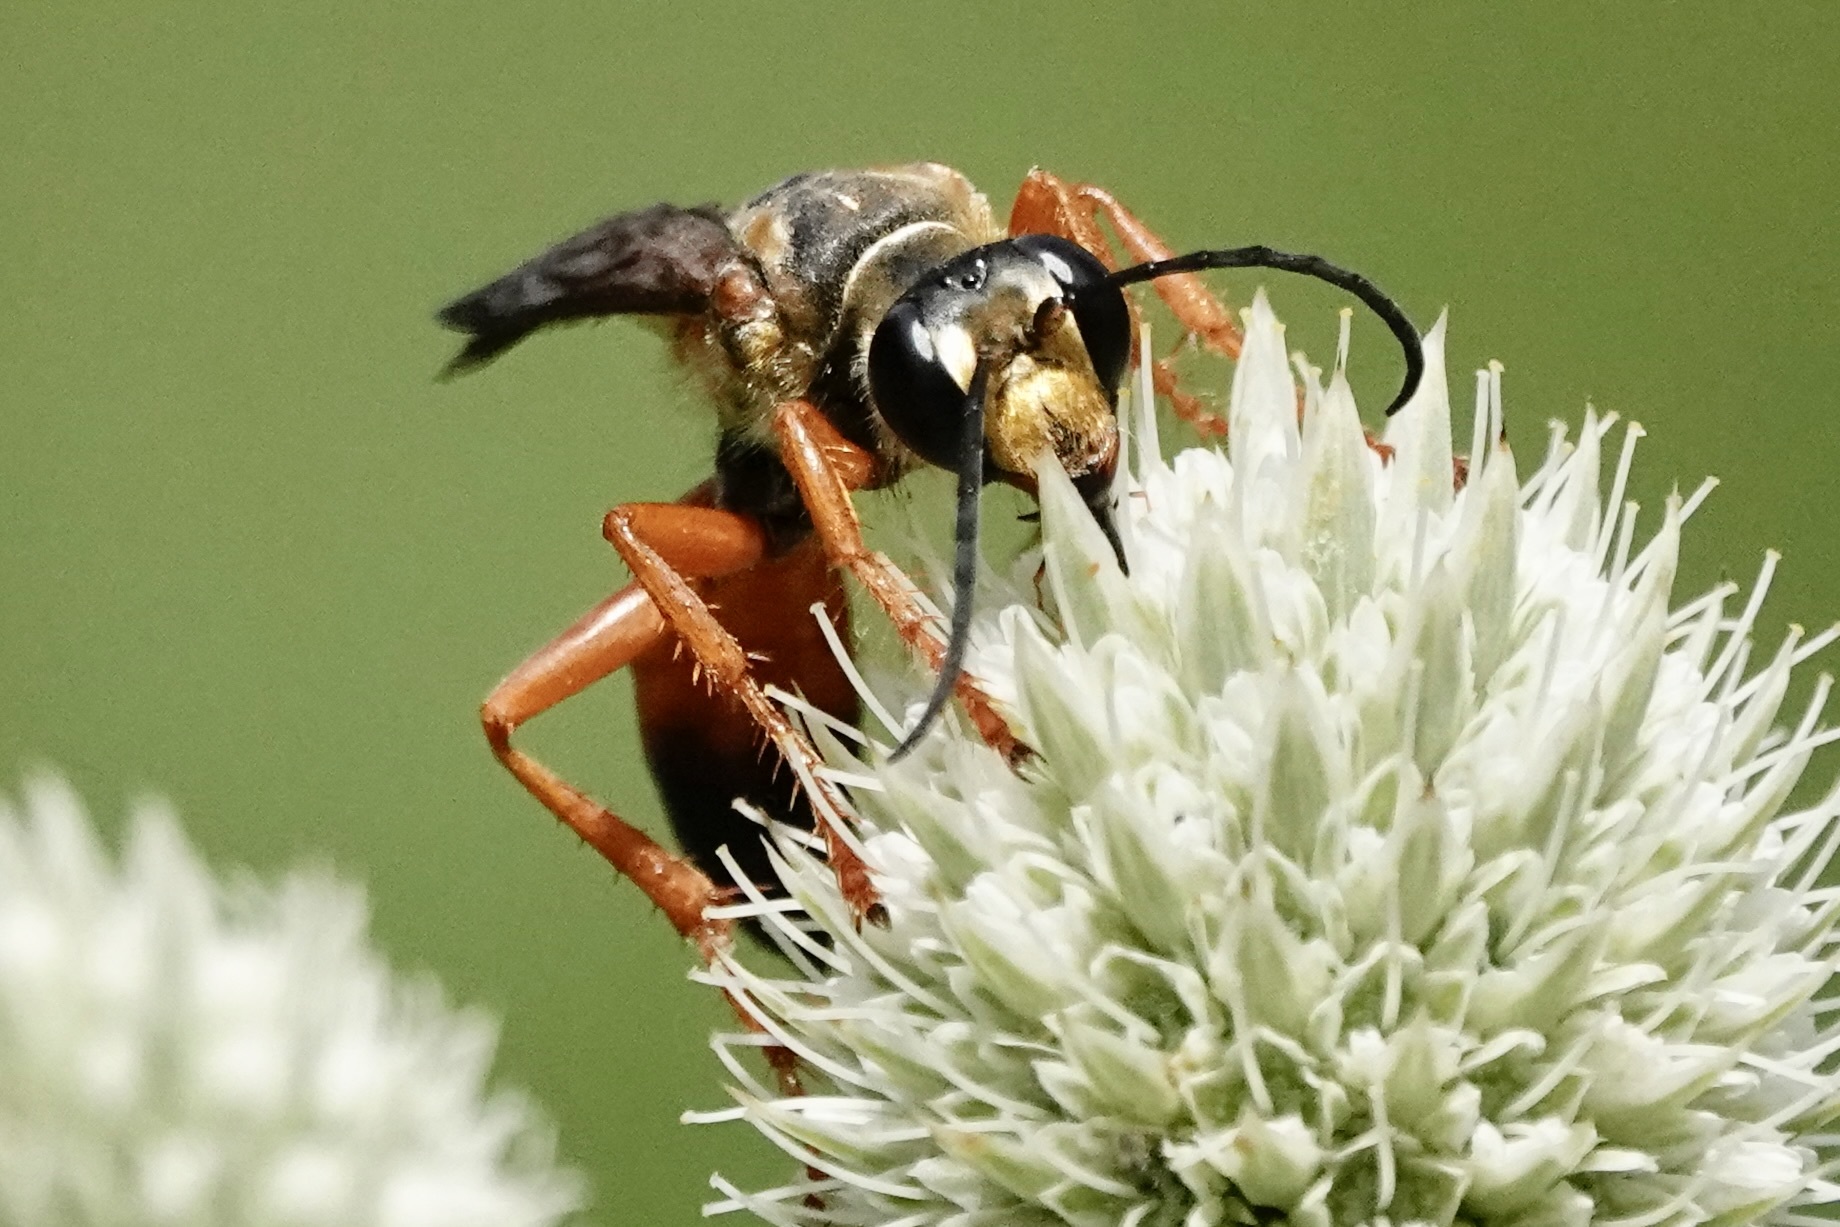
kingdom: Animalia
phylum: Arthropoda
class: Insecta
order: Hymenoptera
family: Sphecidae
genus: Sphex
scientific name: Sphex ichneumoneus
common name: Great golden digger wasp
